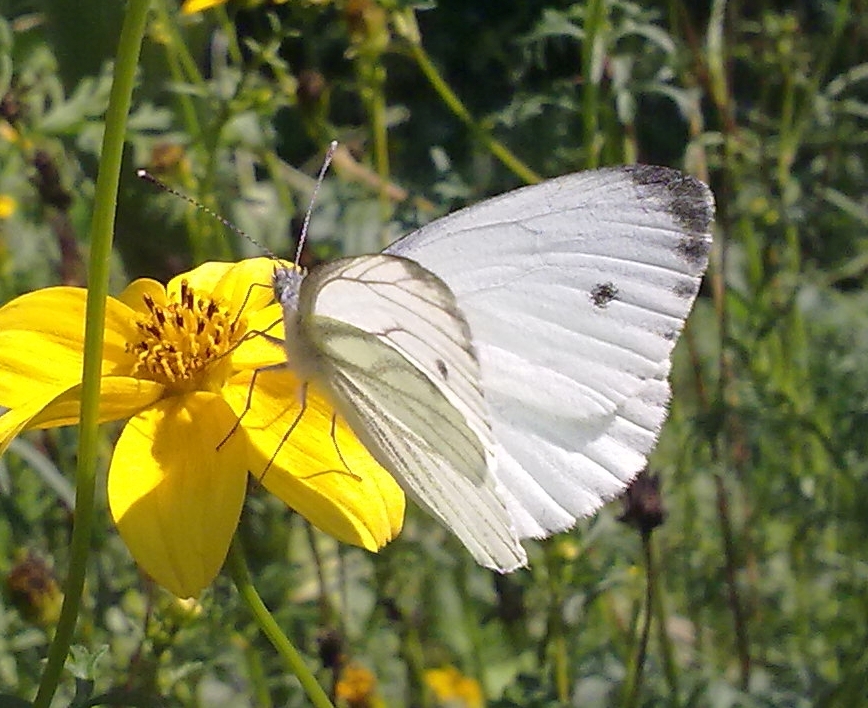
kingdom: Animalia
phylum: Arthropoda
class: Insecta
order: Lepidoptera
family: Pieridae
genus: Pieris
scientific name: Pieris napi
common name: Green-veined white
